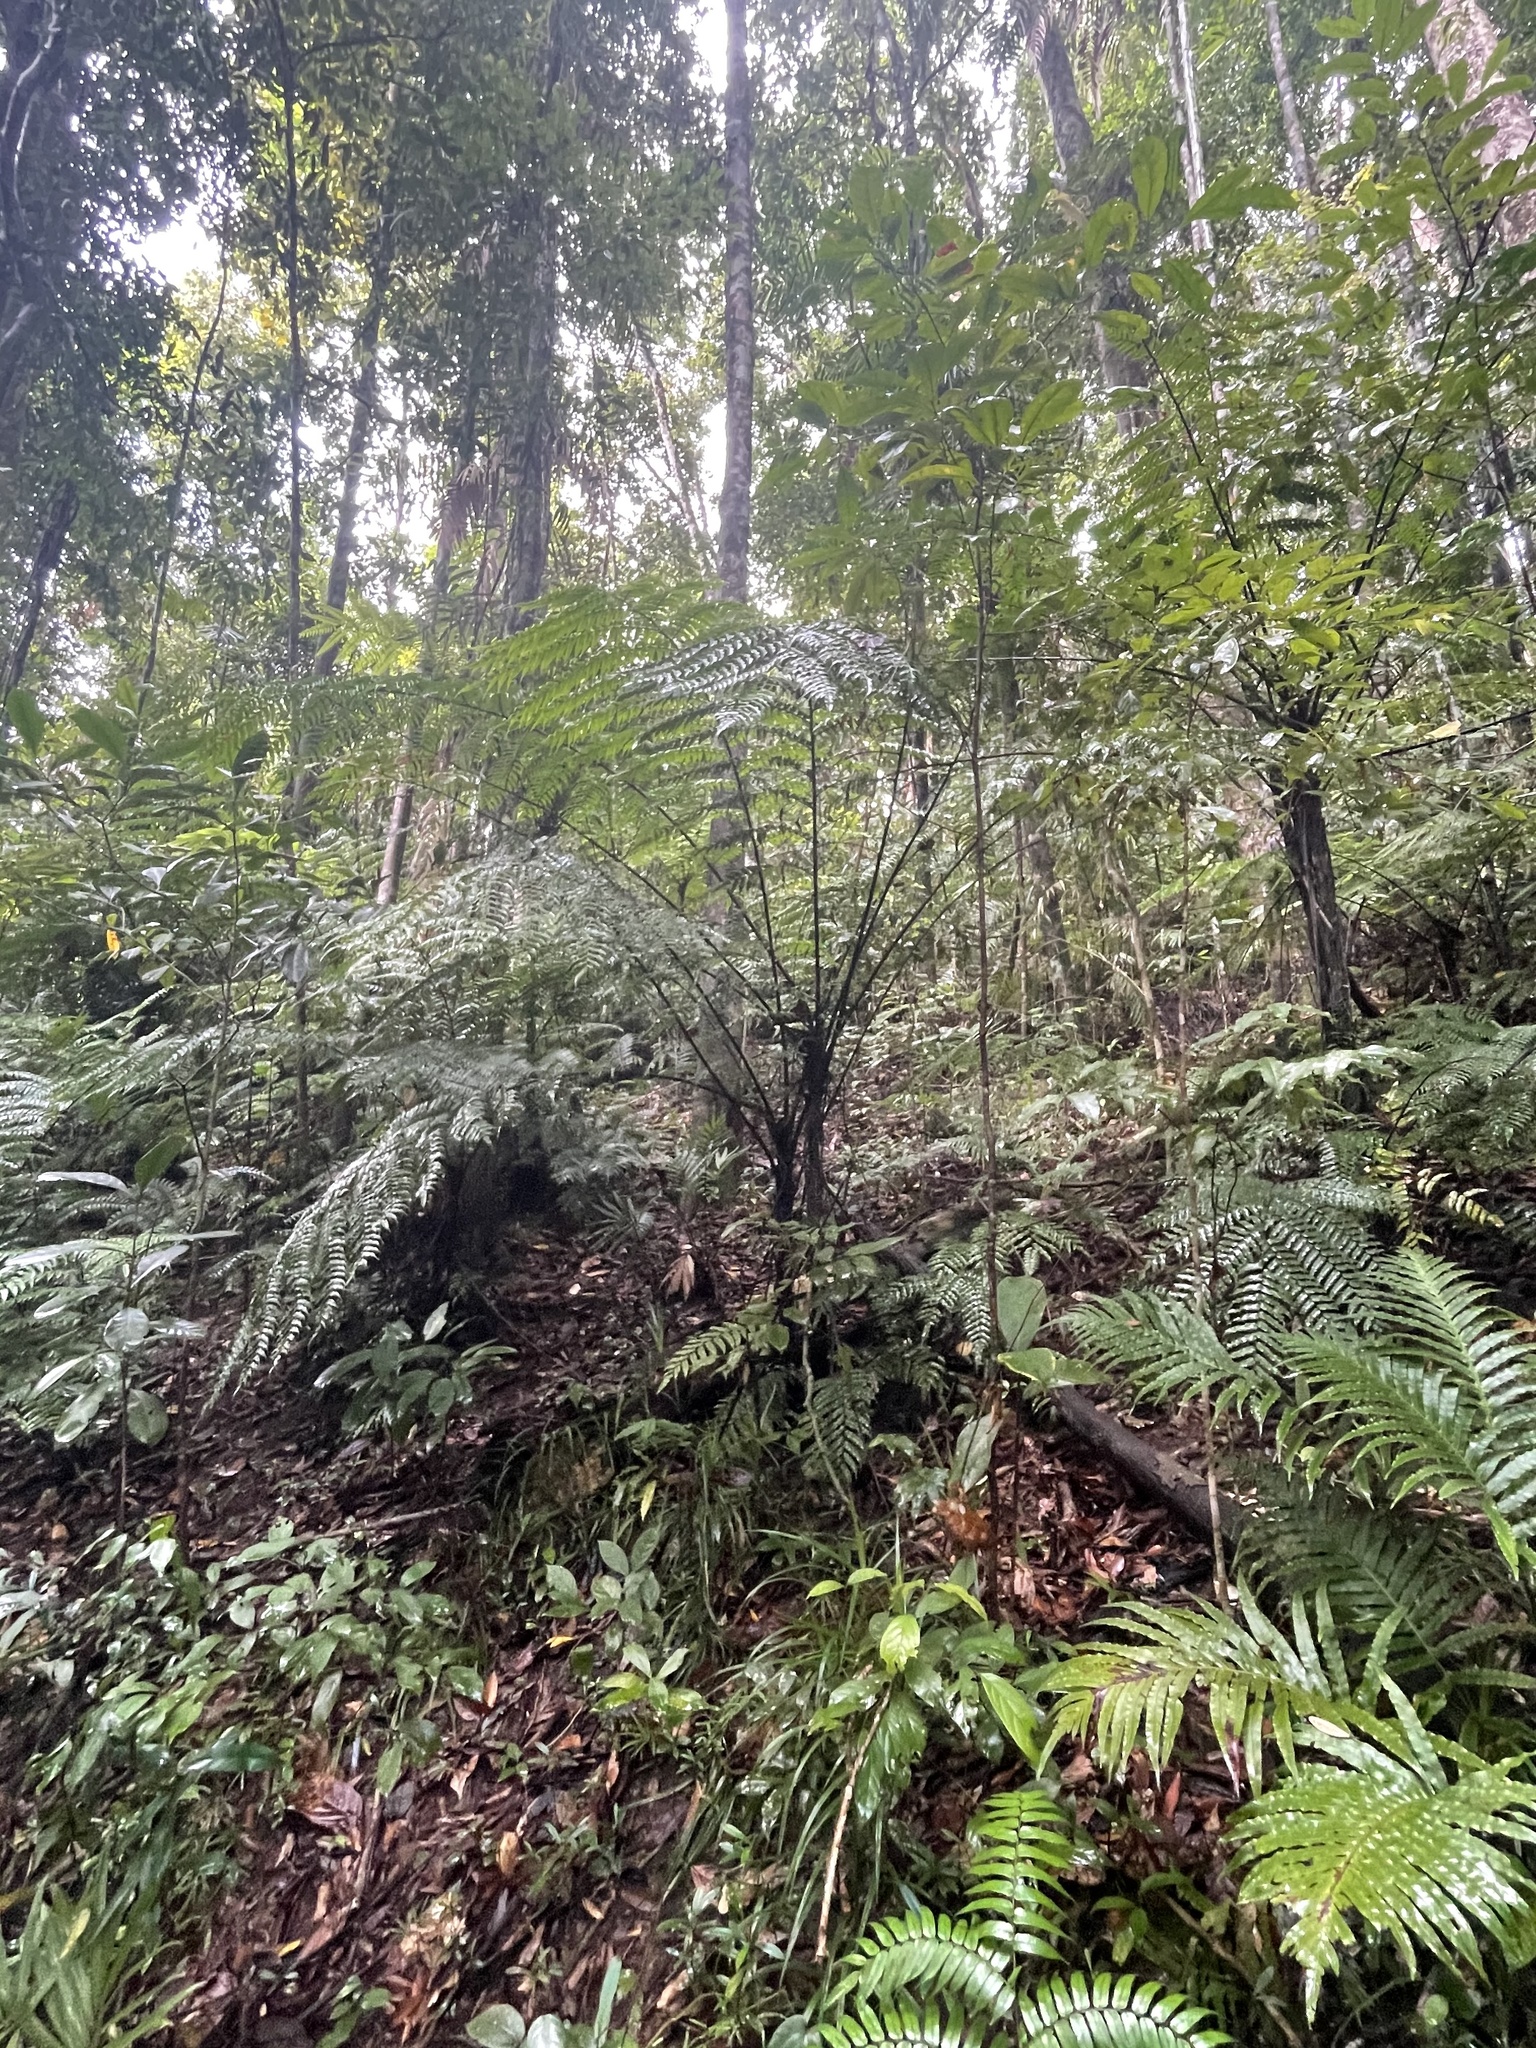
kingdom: Plantae
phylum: Tracheophyta
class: Polypodiopsida
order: Cyatheales
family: Cyatheaceae
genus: Gymnosphaera
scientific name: Gymnosphaera rebeccae
